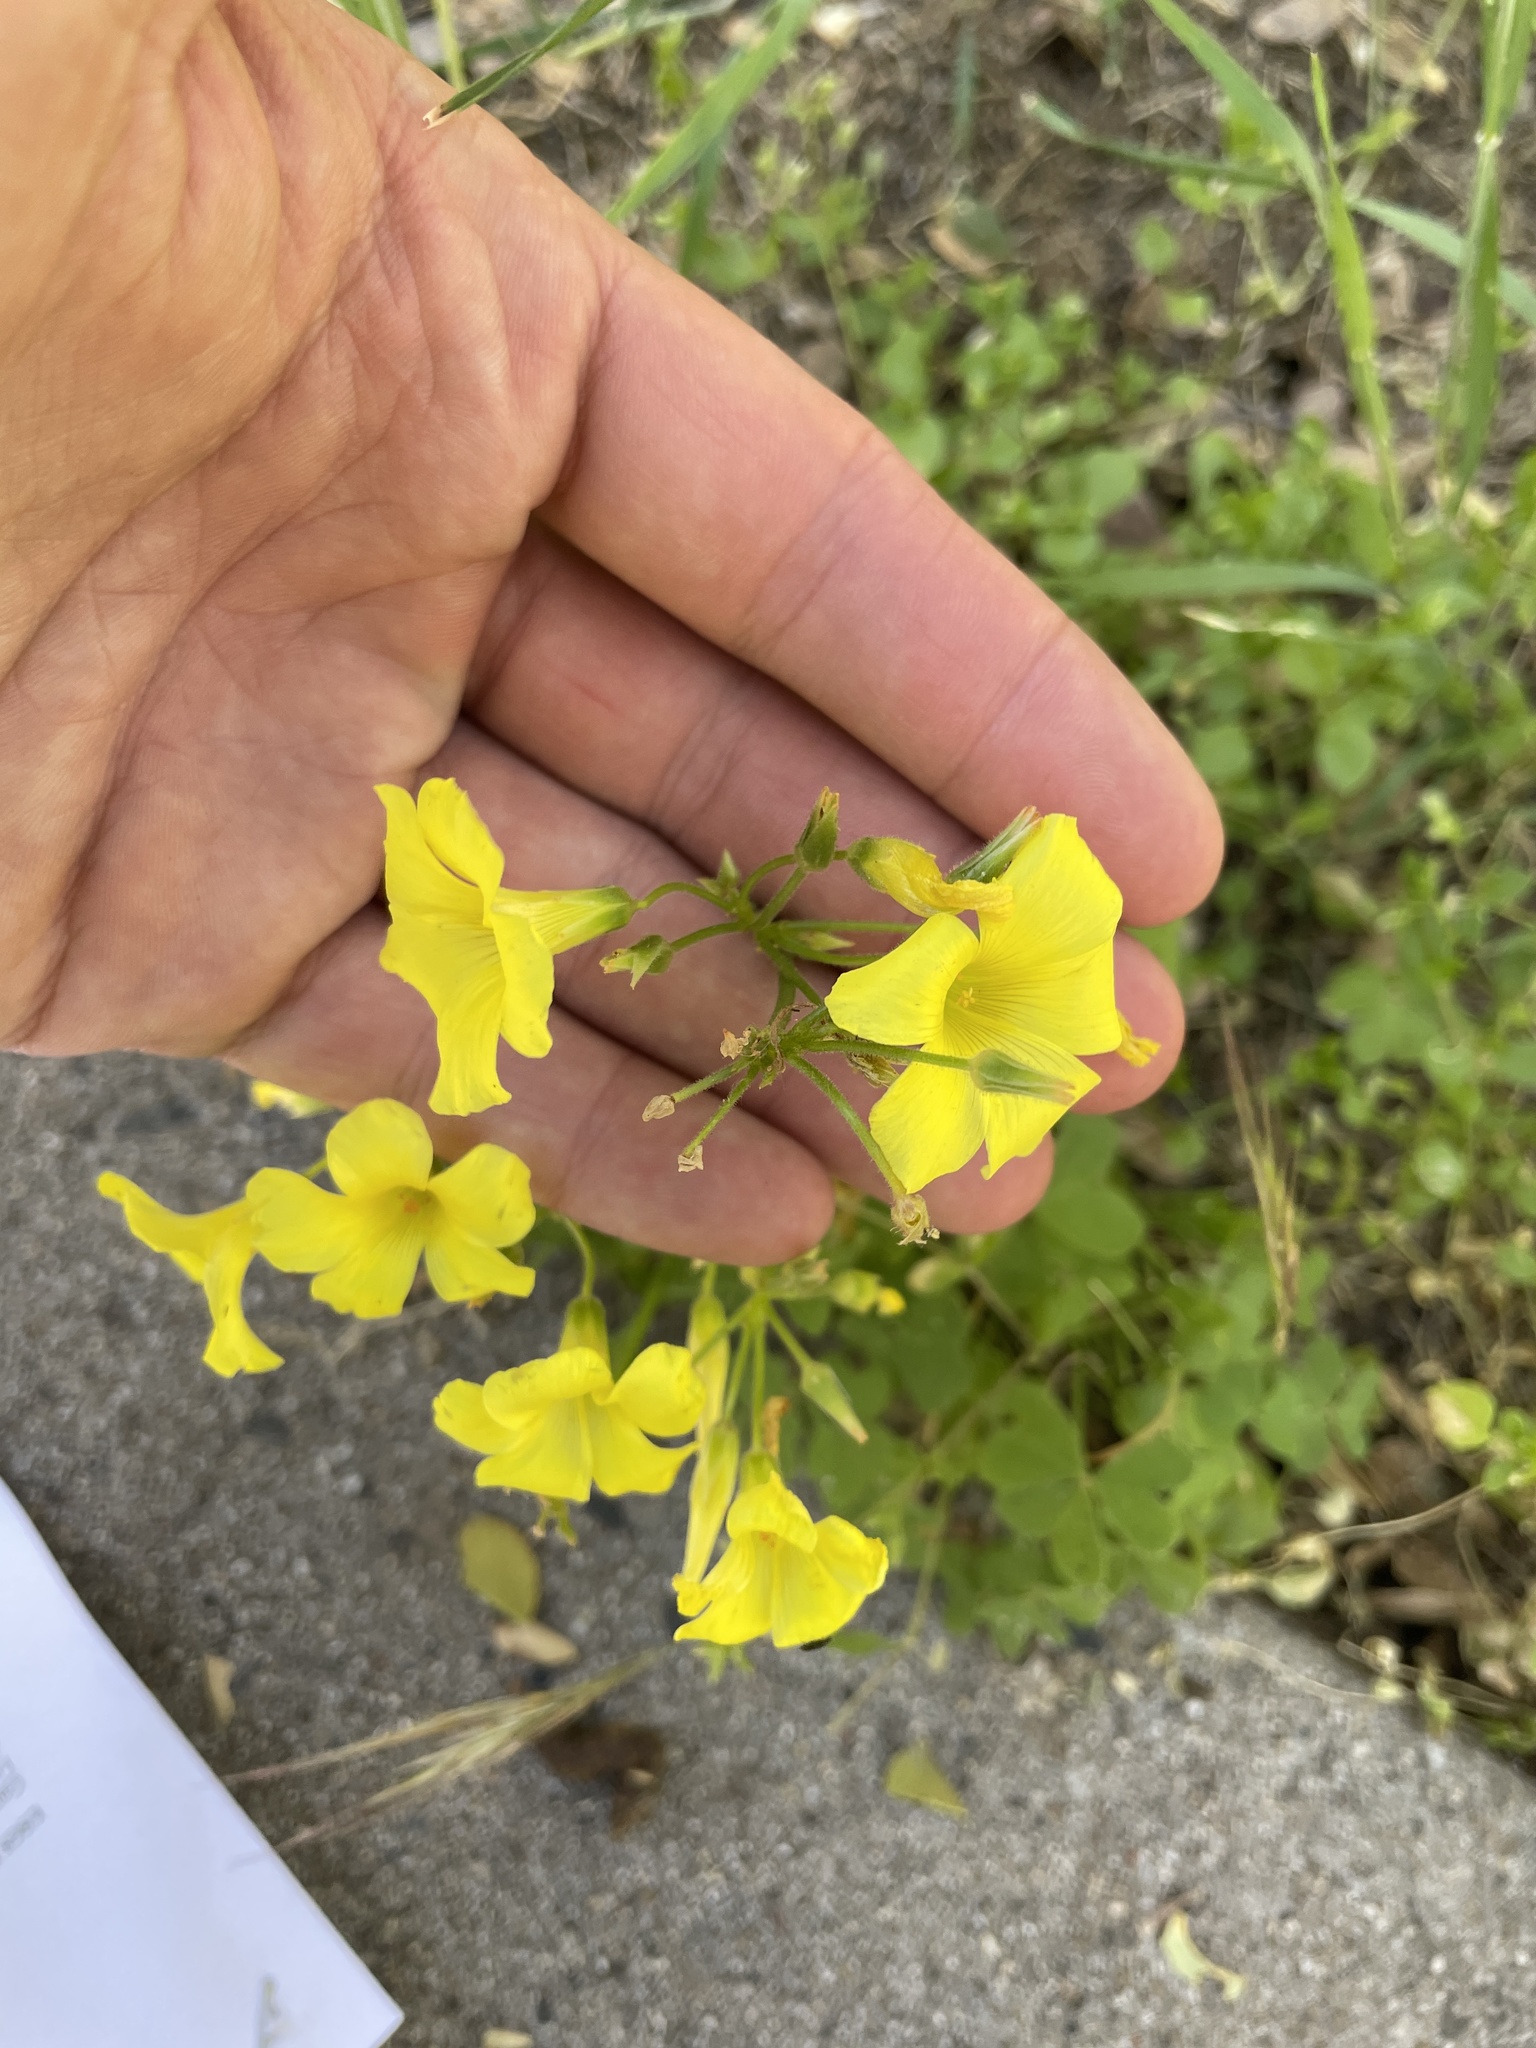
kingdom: Plantae
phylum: Tracheophyta
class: Magnoliopsida
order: Oxalidales
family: Oxalidaceae
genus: Oxalis
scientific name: Oxalis pes-caprae
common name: Bermuda-buttercup
